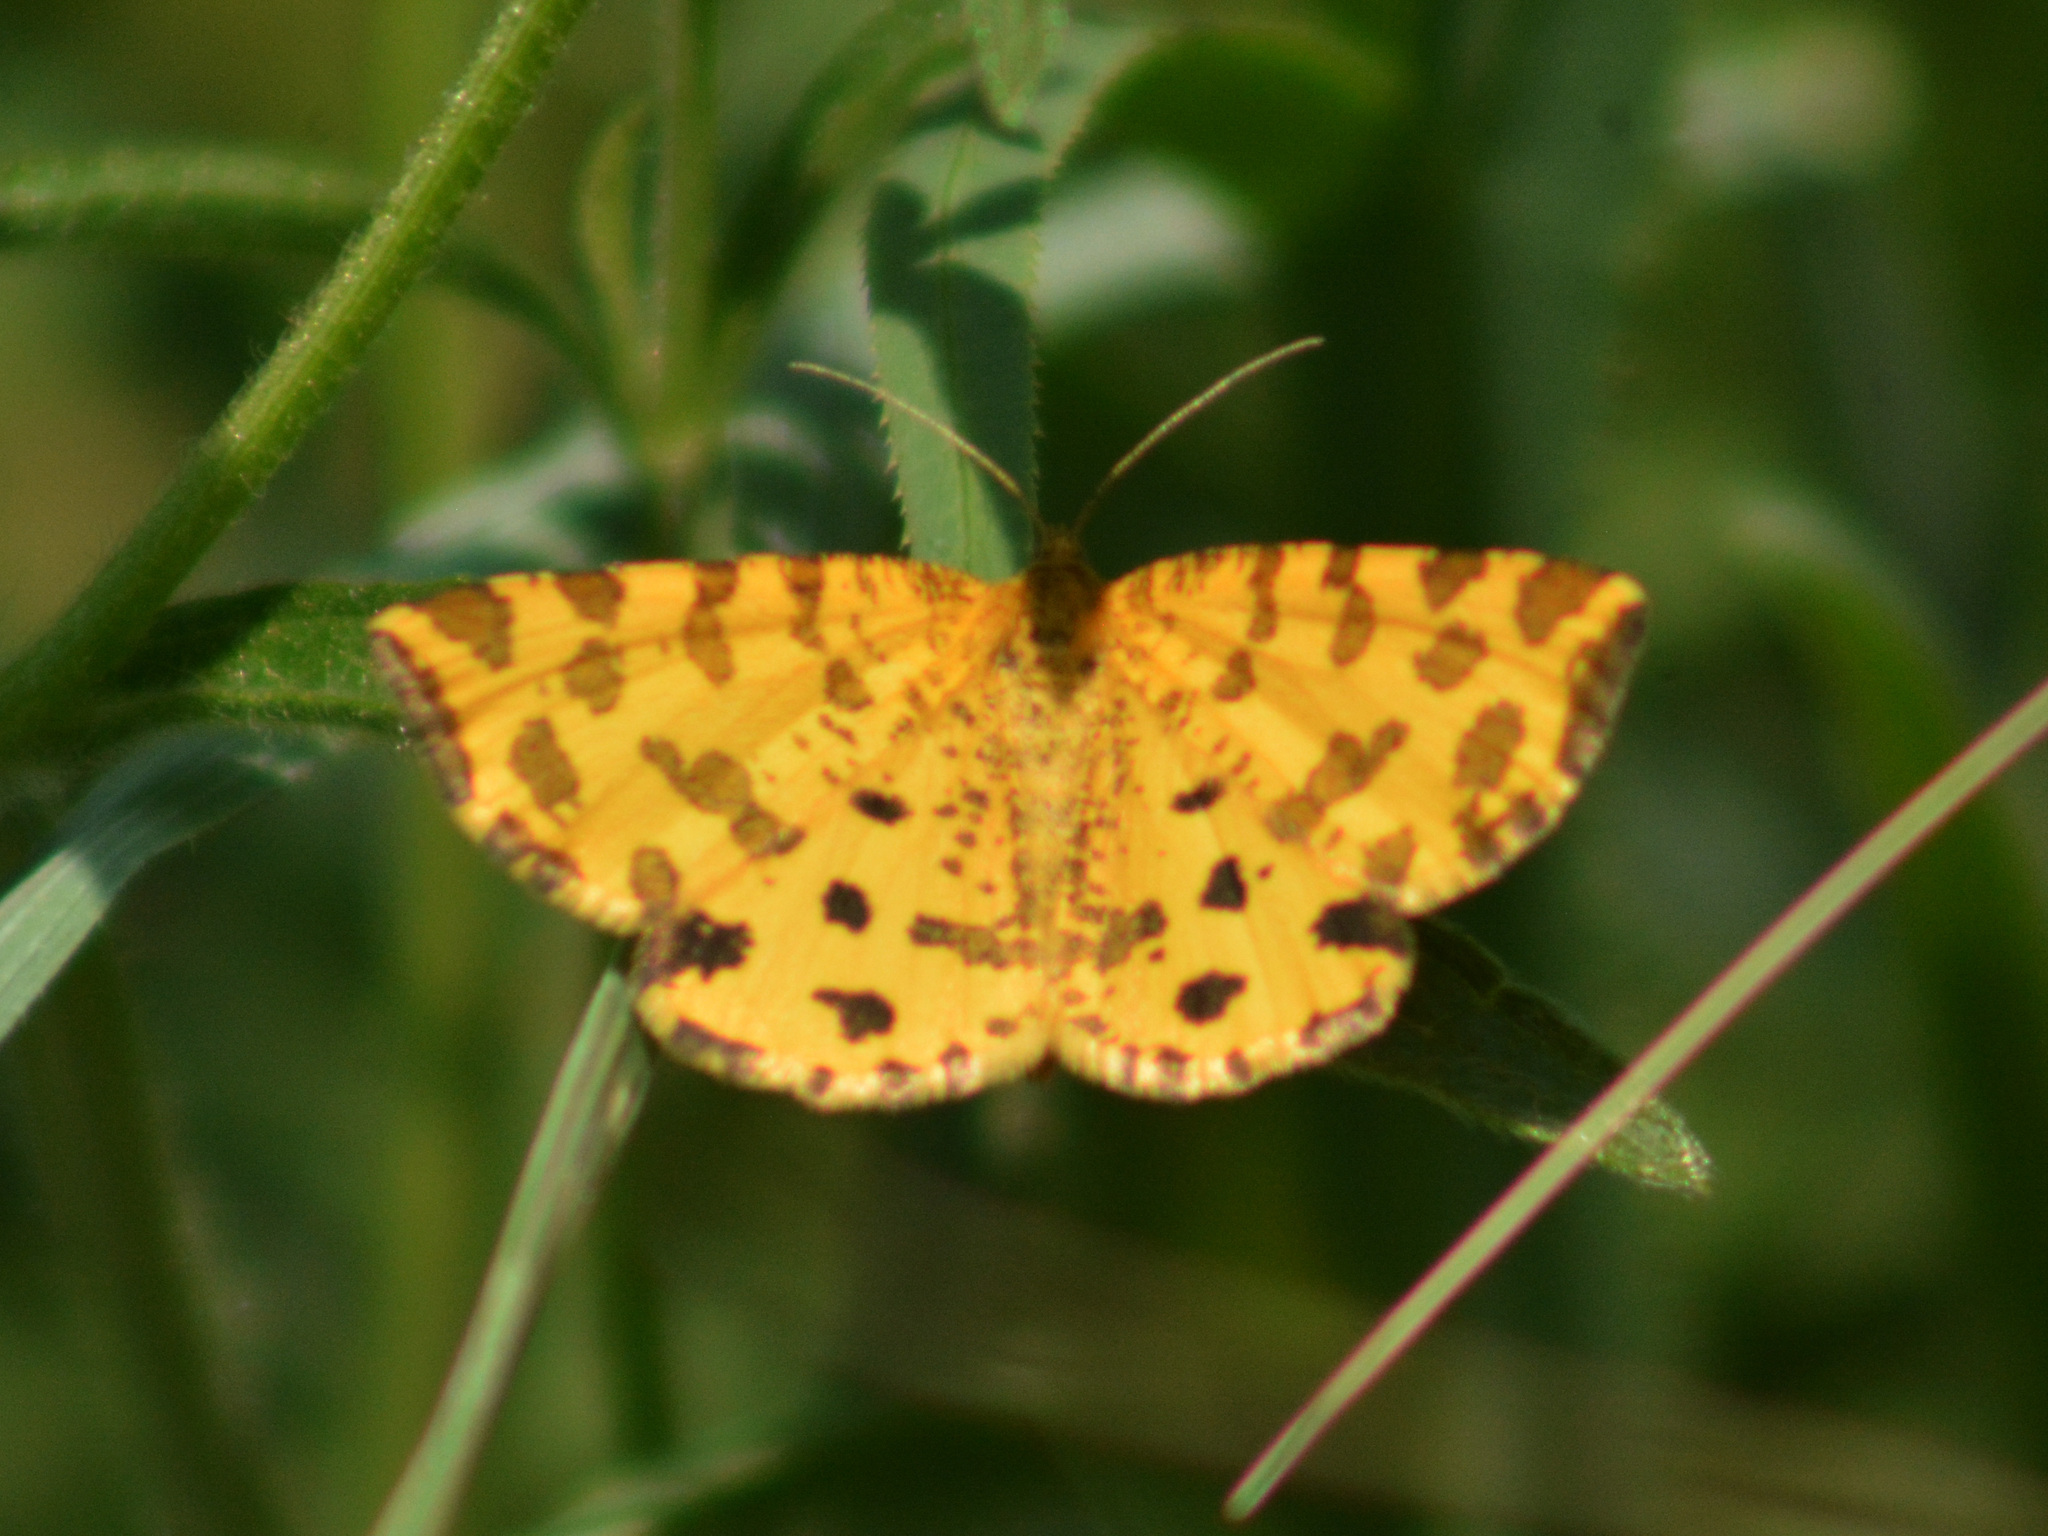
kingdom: Animalia
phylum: Arthropoda
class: Insecta
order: Lepidoptera
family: Geometridae
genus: Pseudopanthera
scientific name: Pseudopanthera macularia
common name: Speckled yellow
